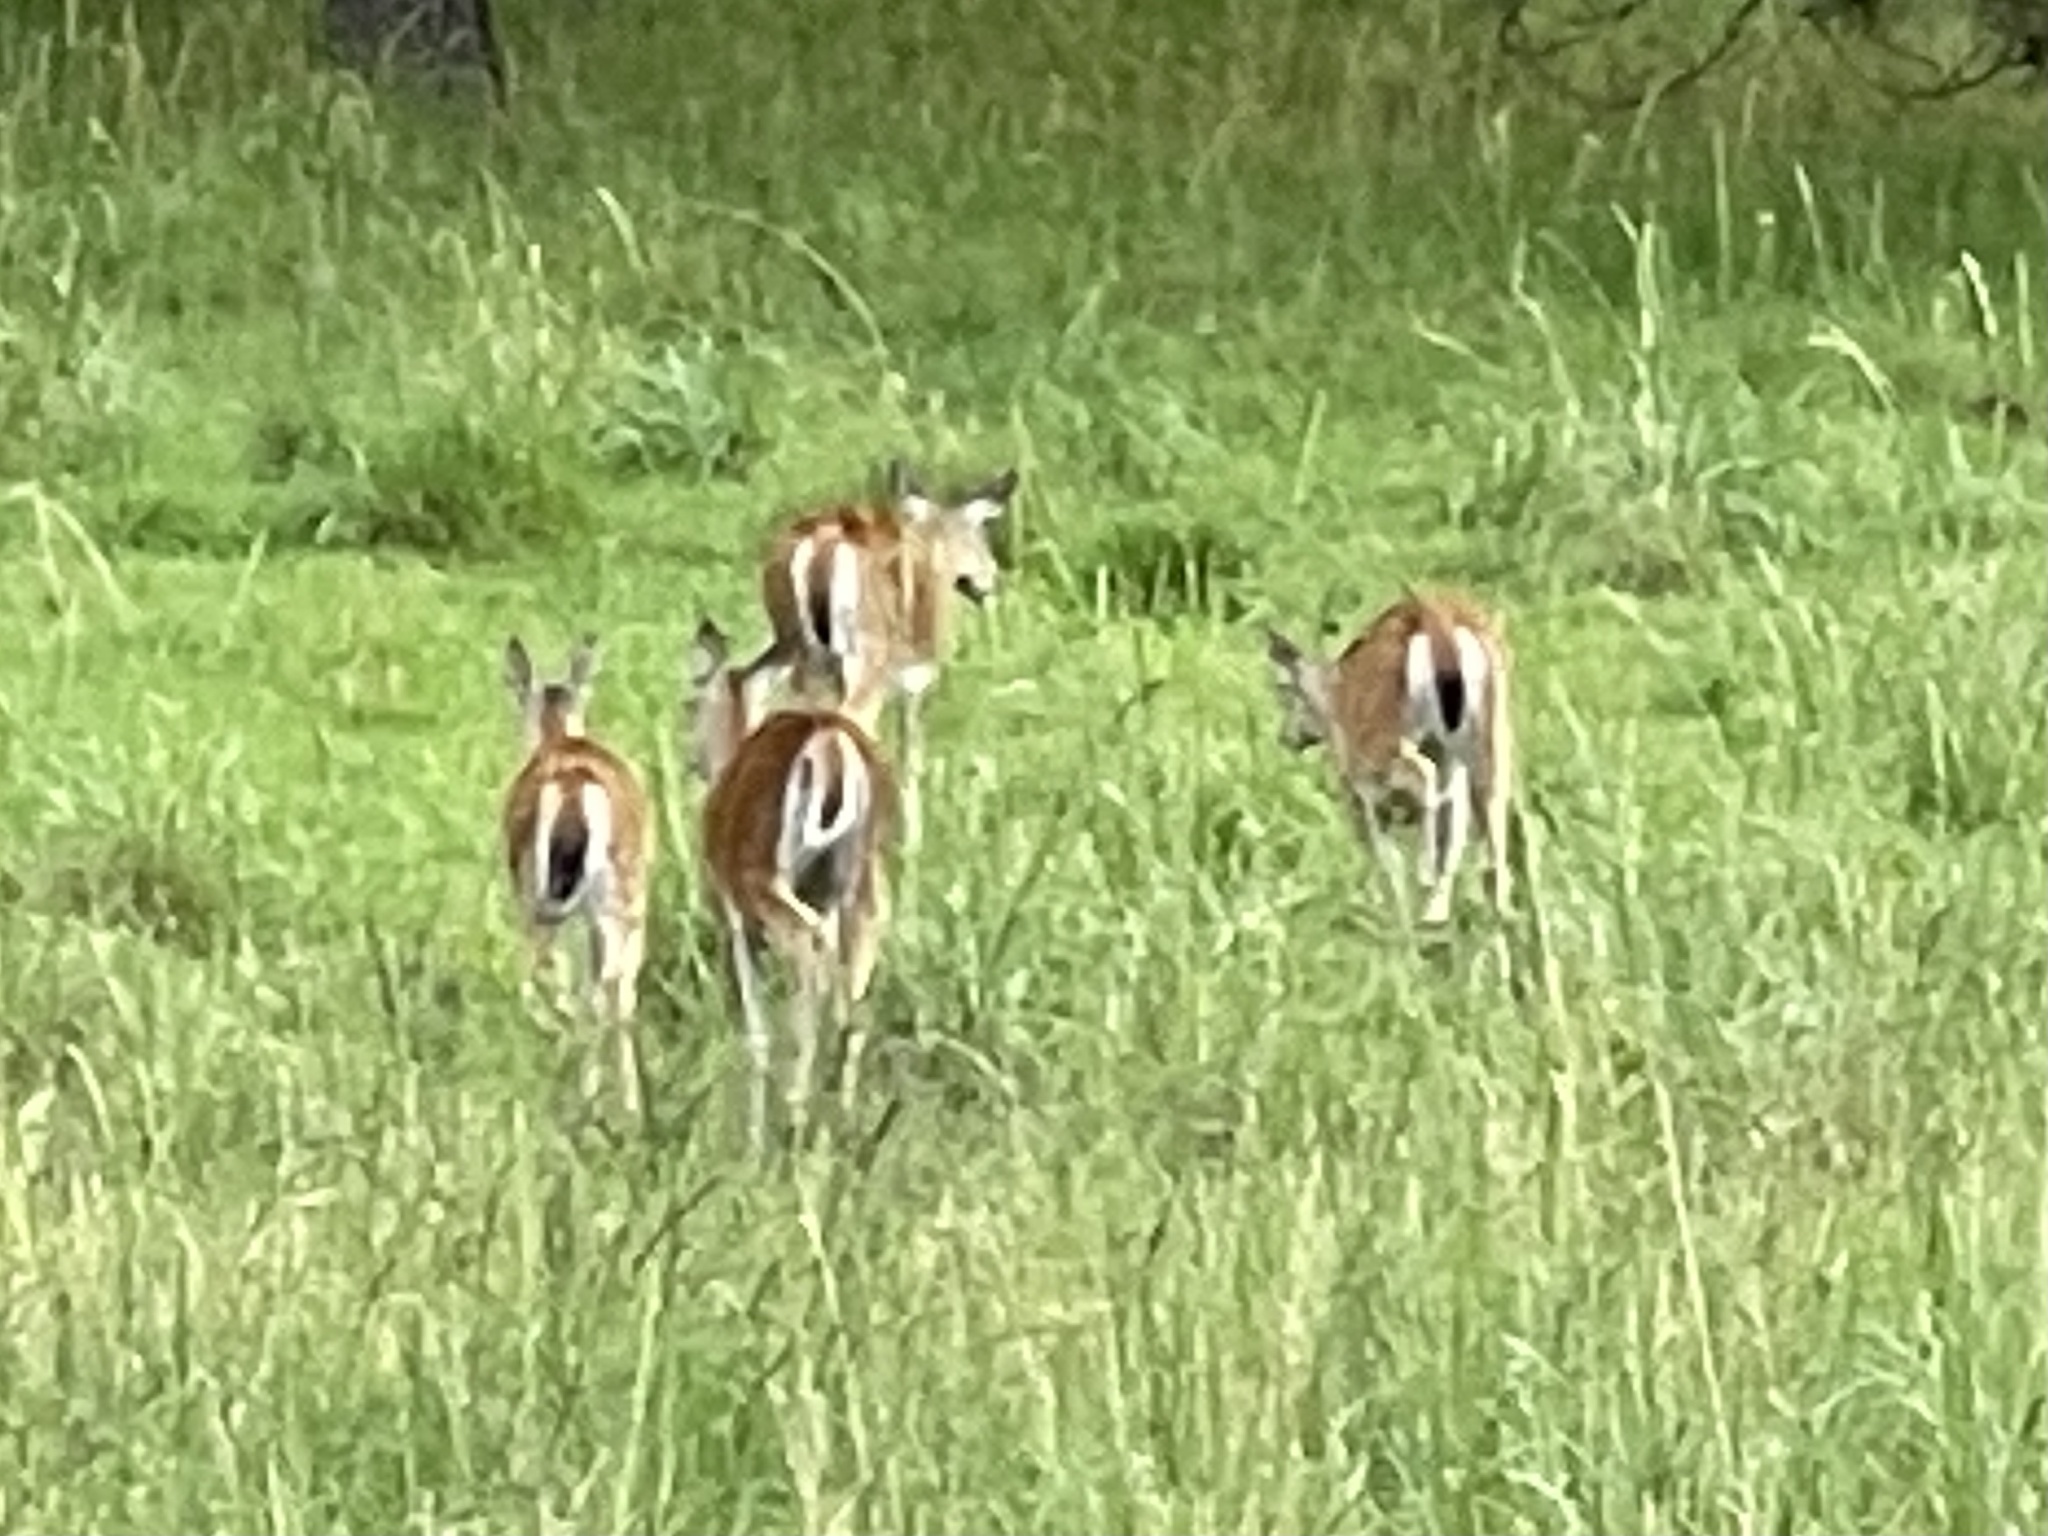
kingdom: Animalia
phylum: Chordata
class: Mammalia
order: Artiodactyla
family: Cervidae
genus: Odocoileus
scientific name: Odocoileus virginianus
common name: White-tailed deer
